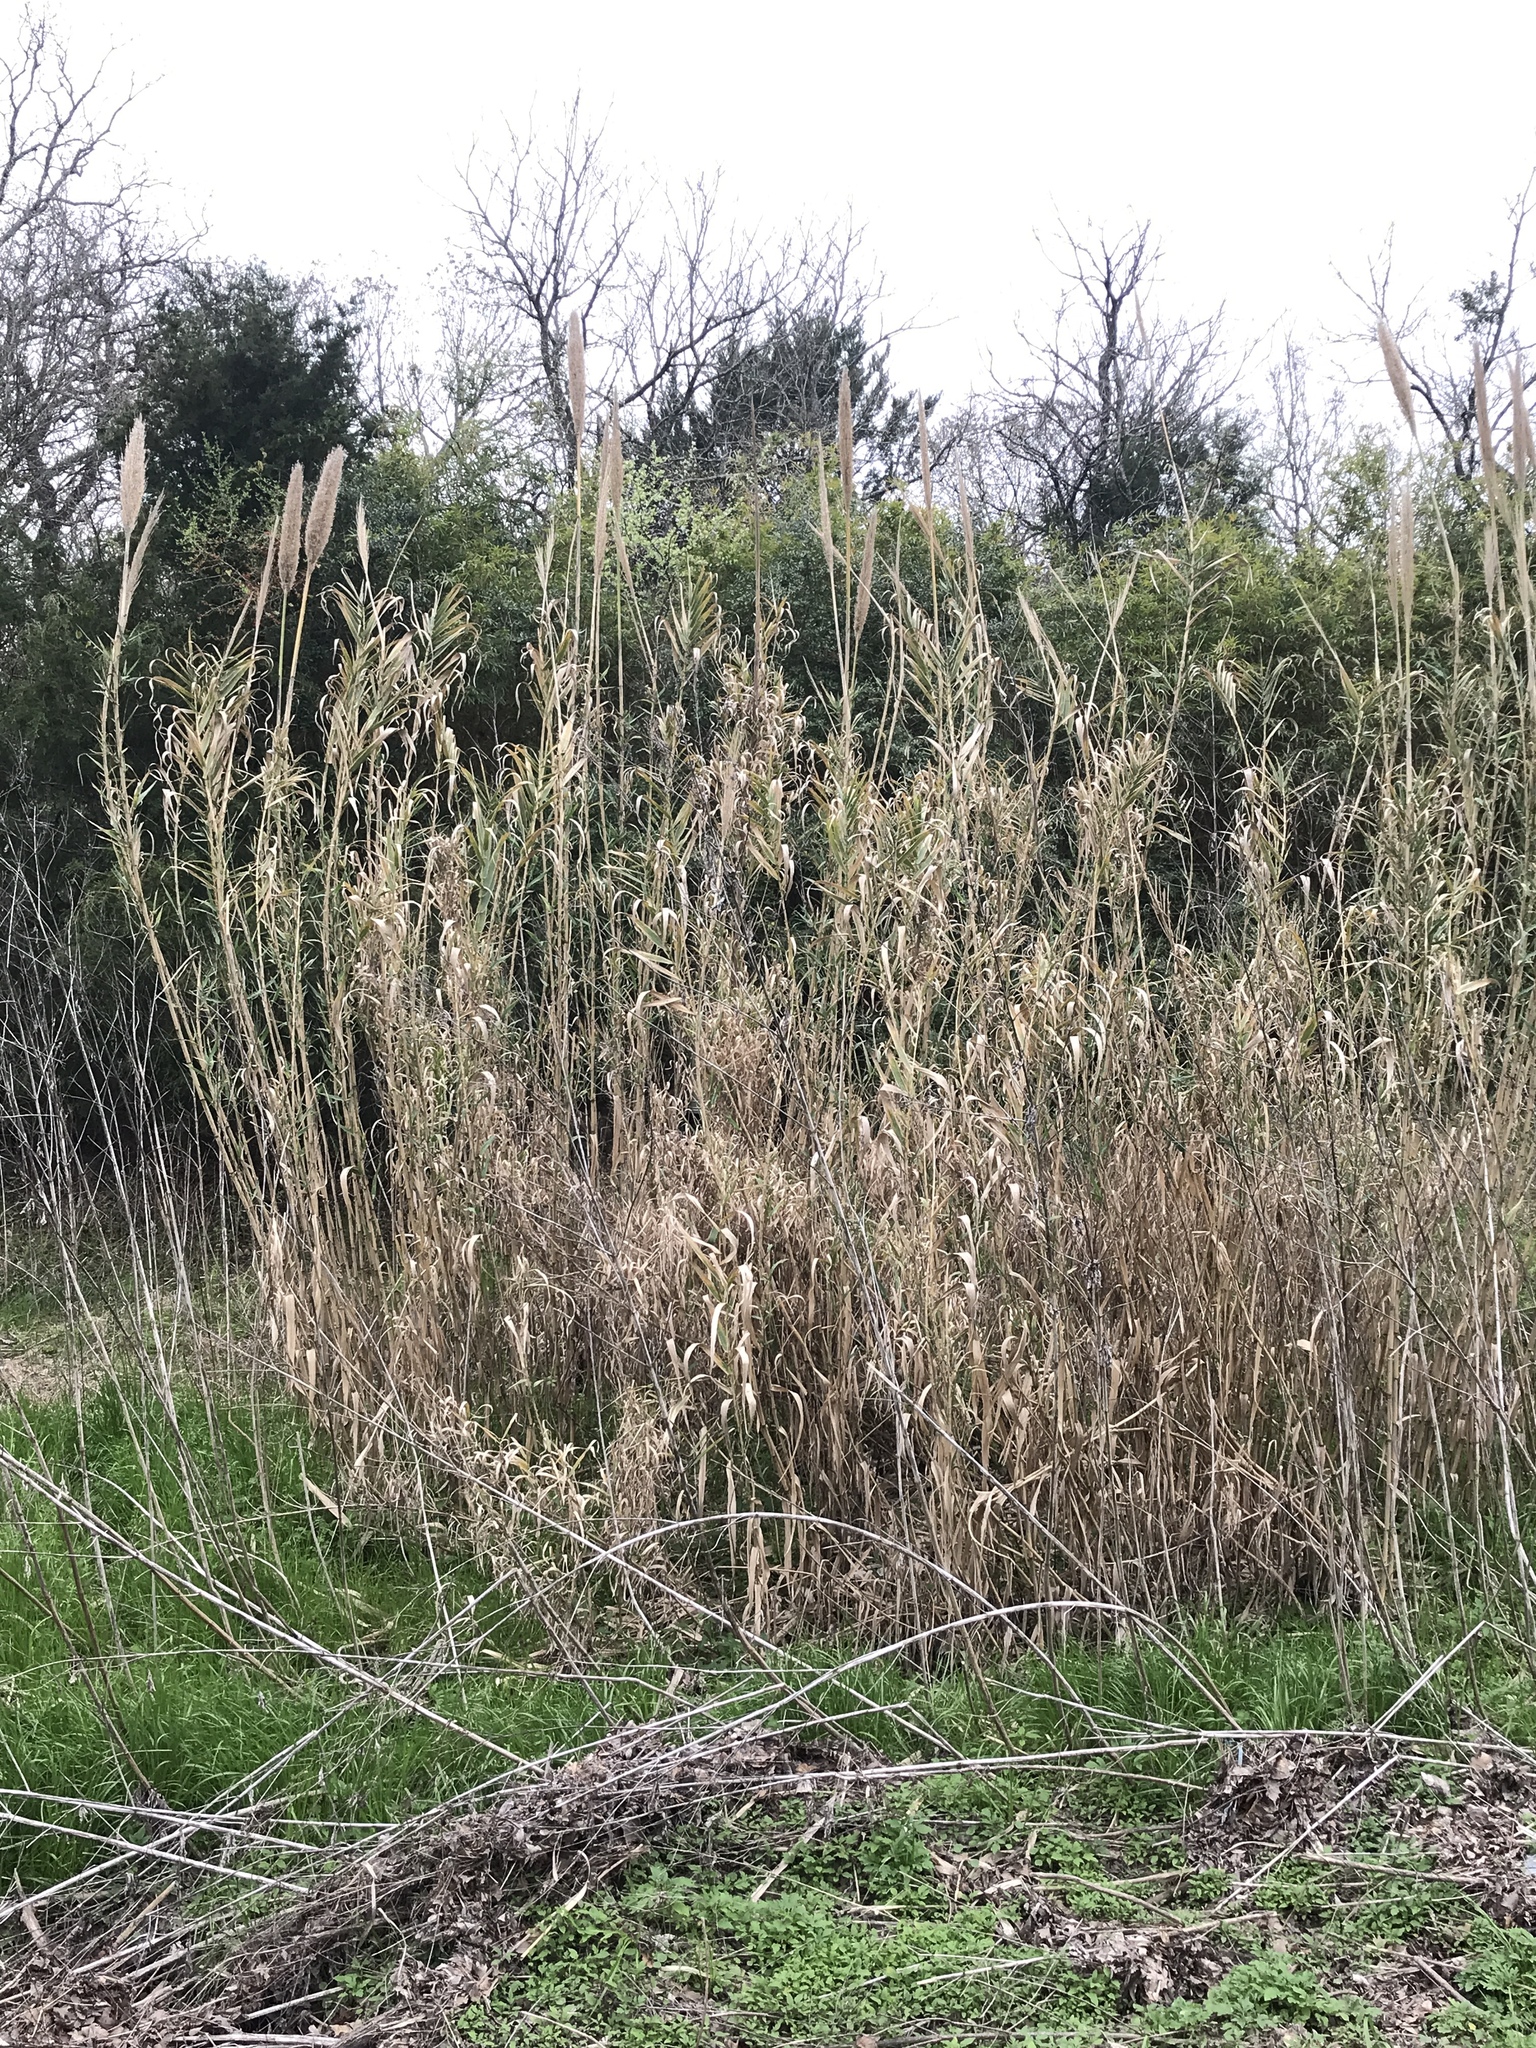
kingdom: Plantae
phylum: Tracheophyta
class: Liliopsida
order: Poales
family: Poaceae
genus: Arundo
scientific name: Arundo donax
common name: Giant reed
